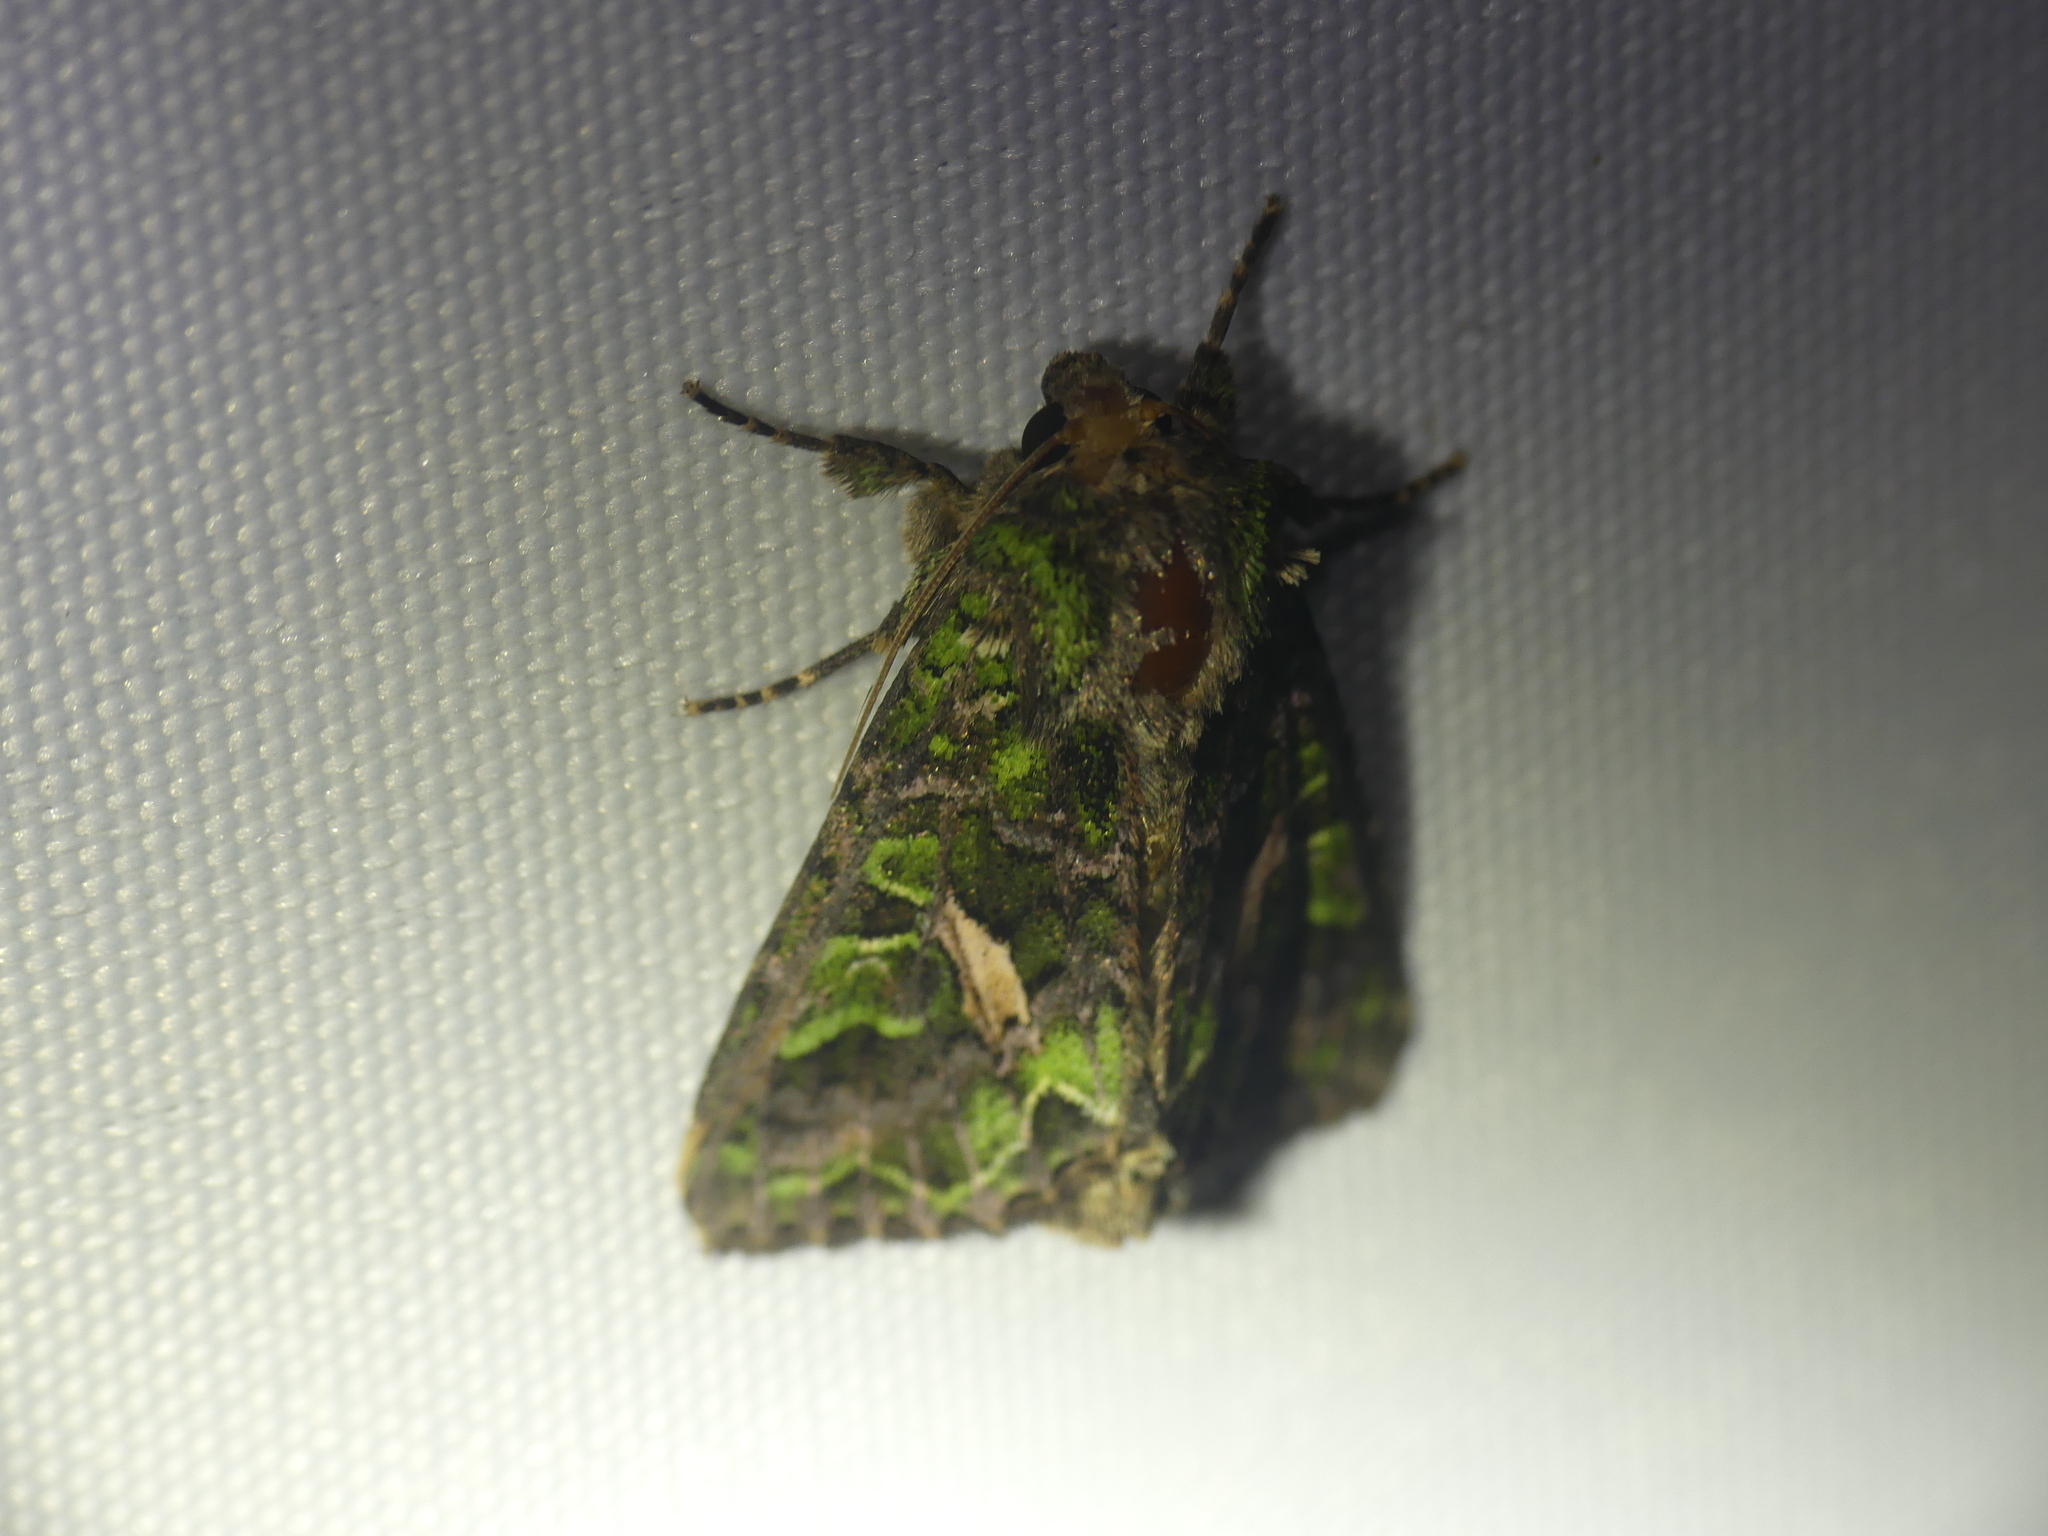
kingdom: Animalia
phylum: Arthropoda
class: Insecta
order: Lepidoptera
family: Noctuidae
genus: Trachea
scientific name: Trachea atriplicis
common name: Orache moth
